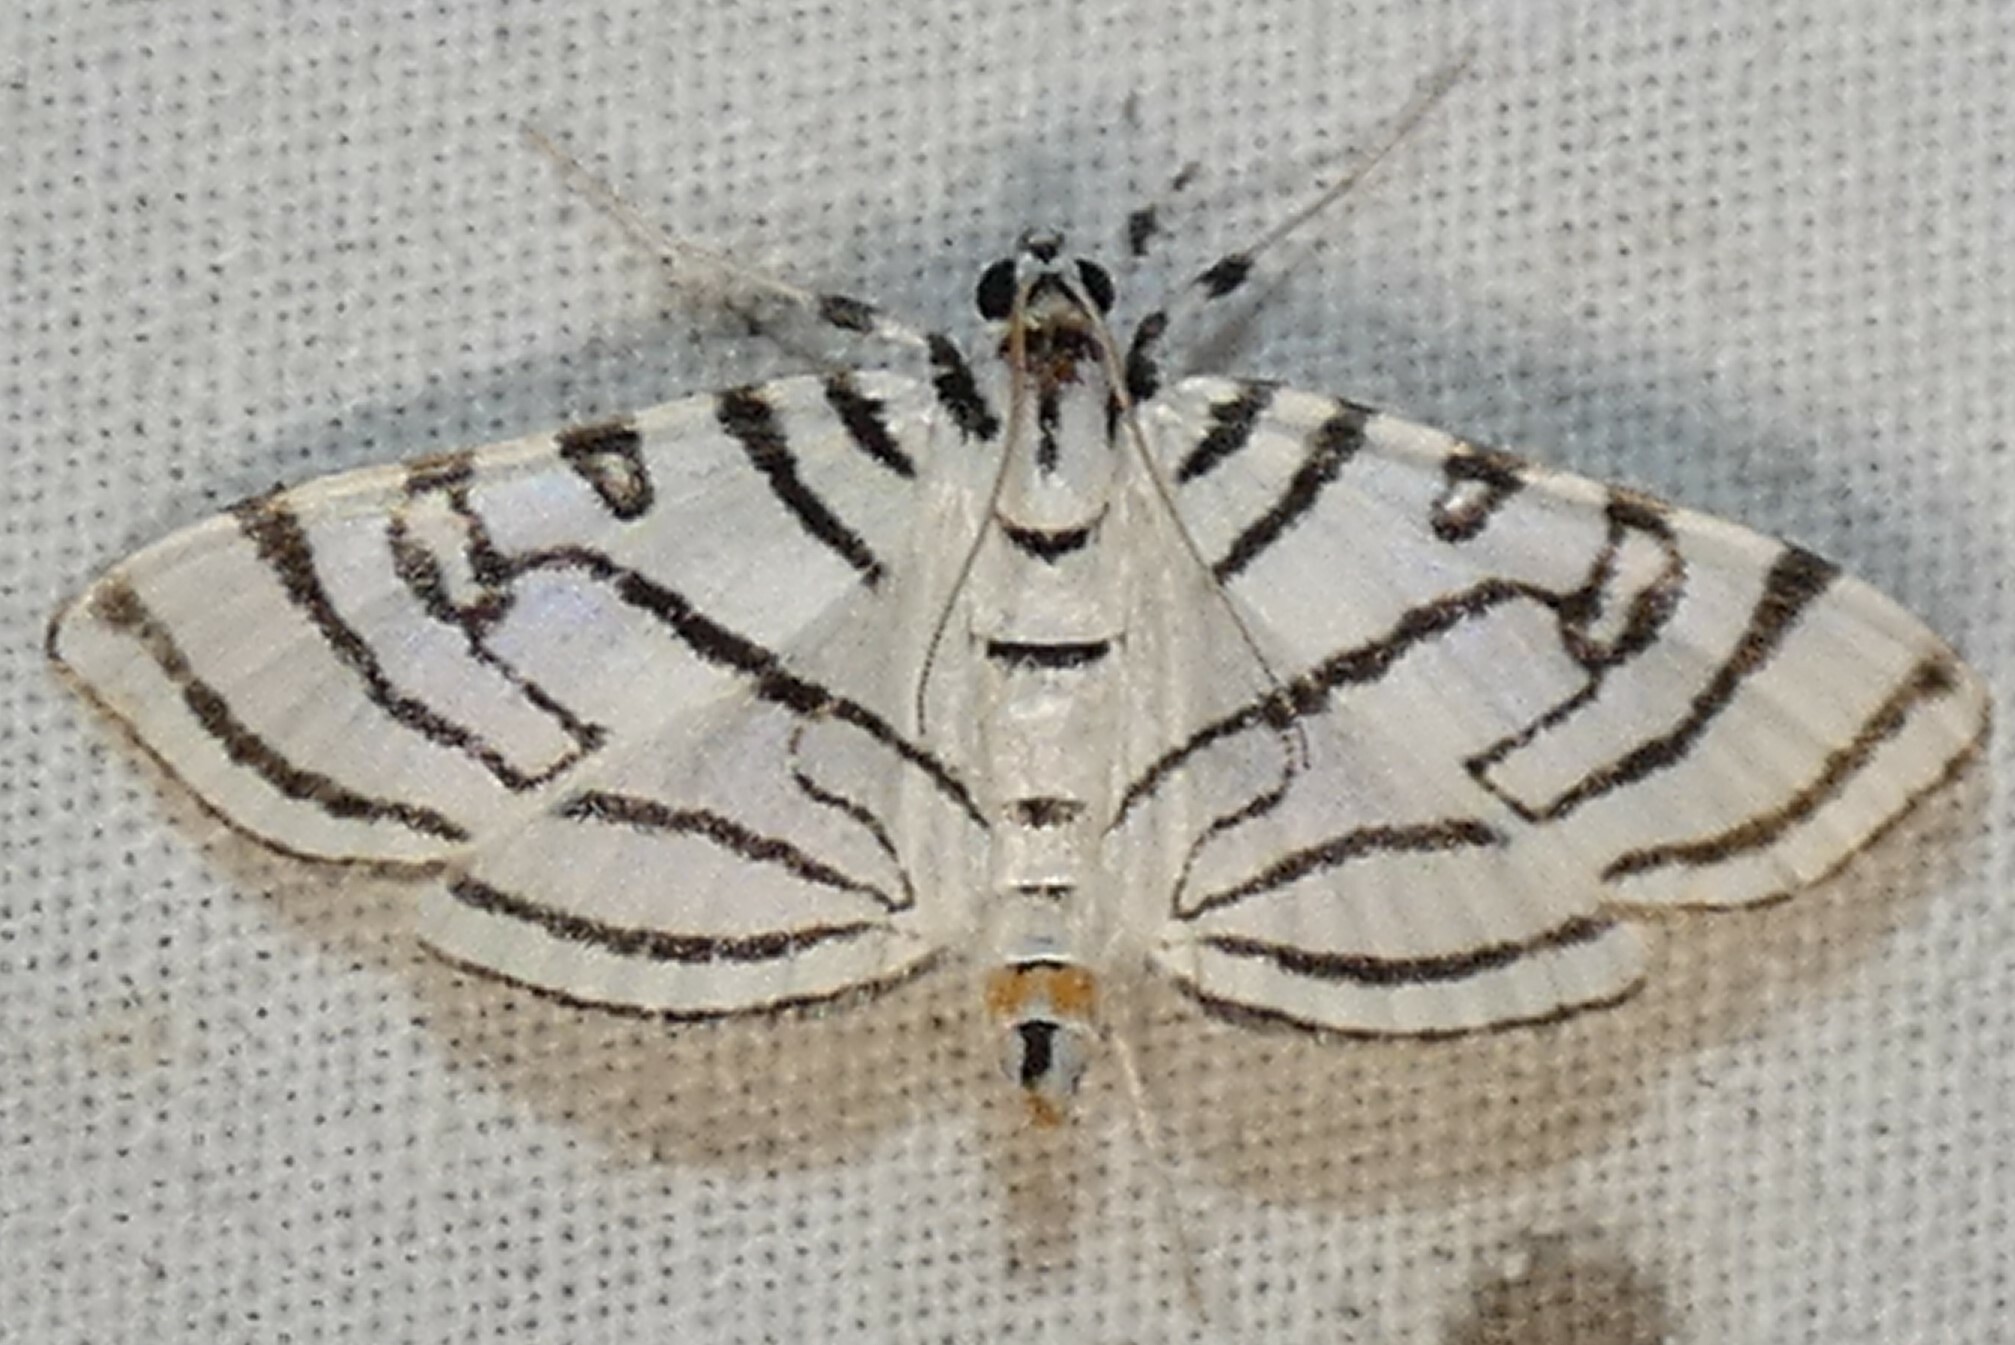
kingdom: Animalia
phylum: Arthropoda
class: Insecta
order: Lepidoptera
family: Crambidae
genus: Conchylodes
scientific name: Conchylodes concinnalis
